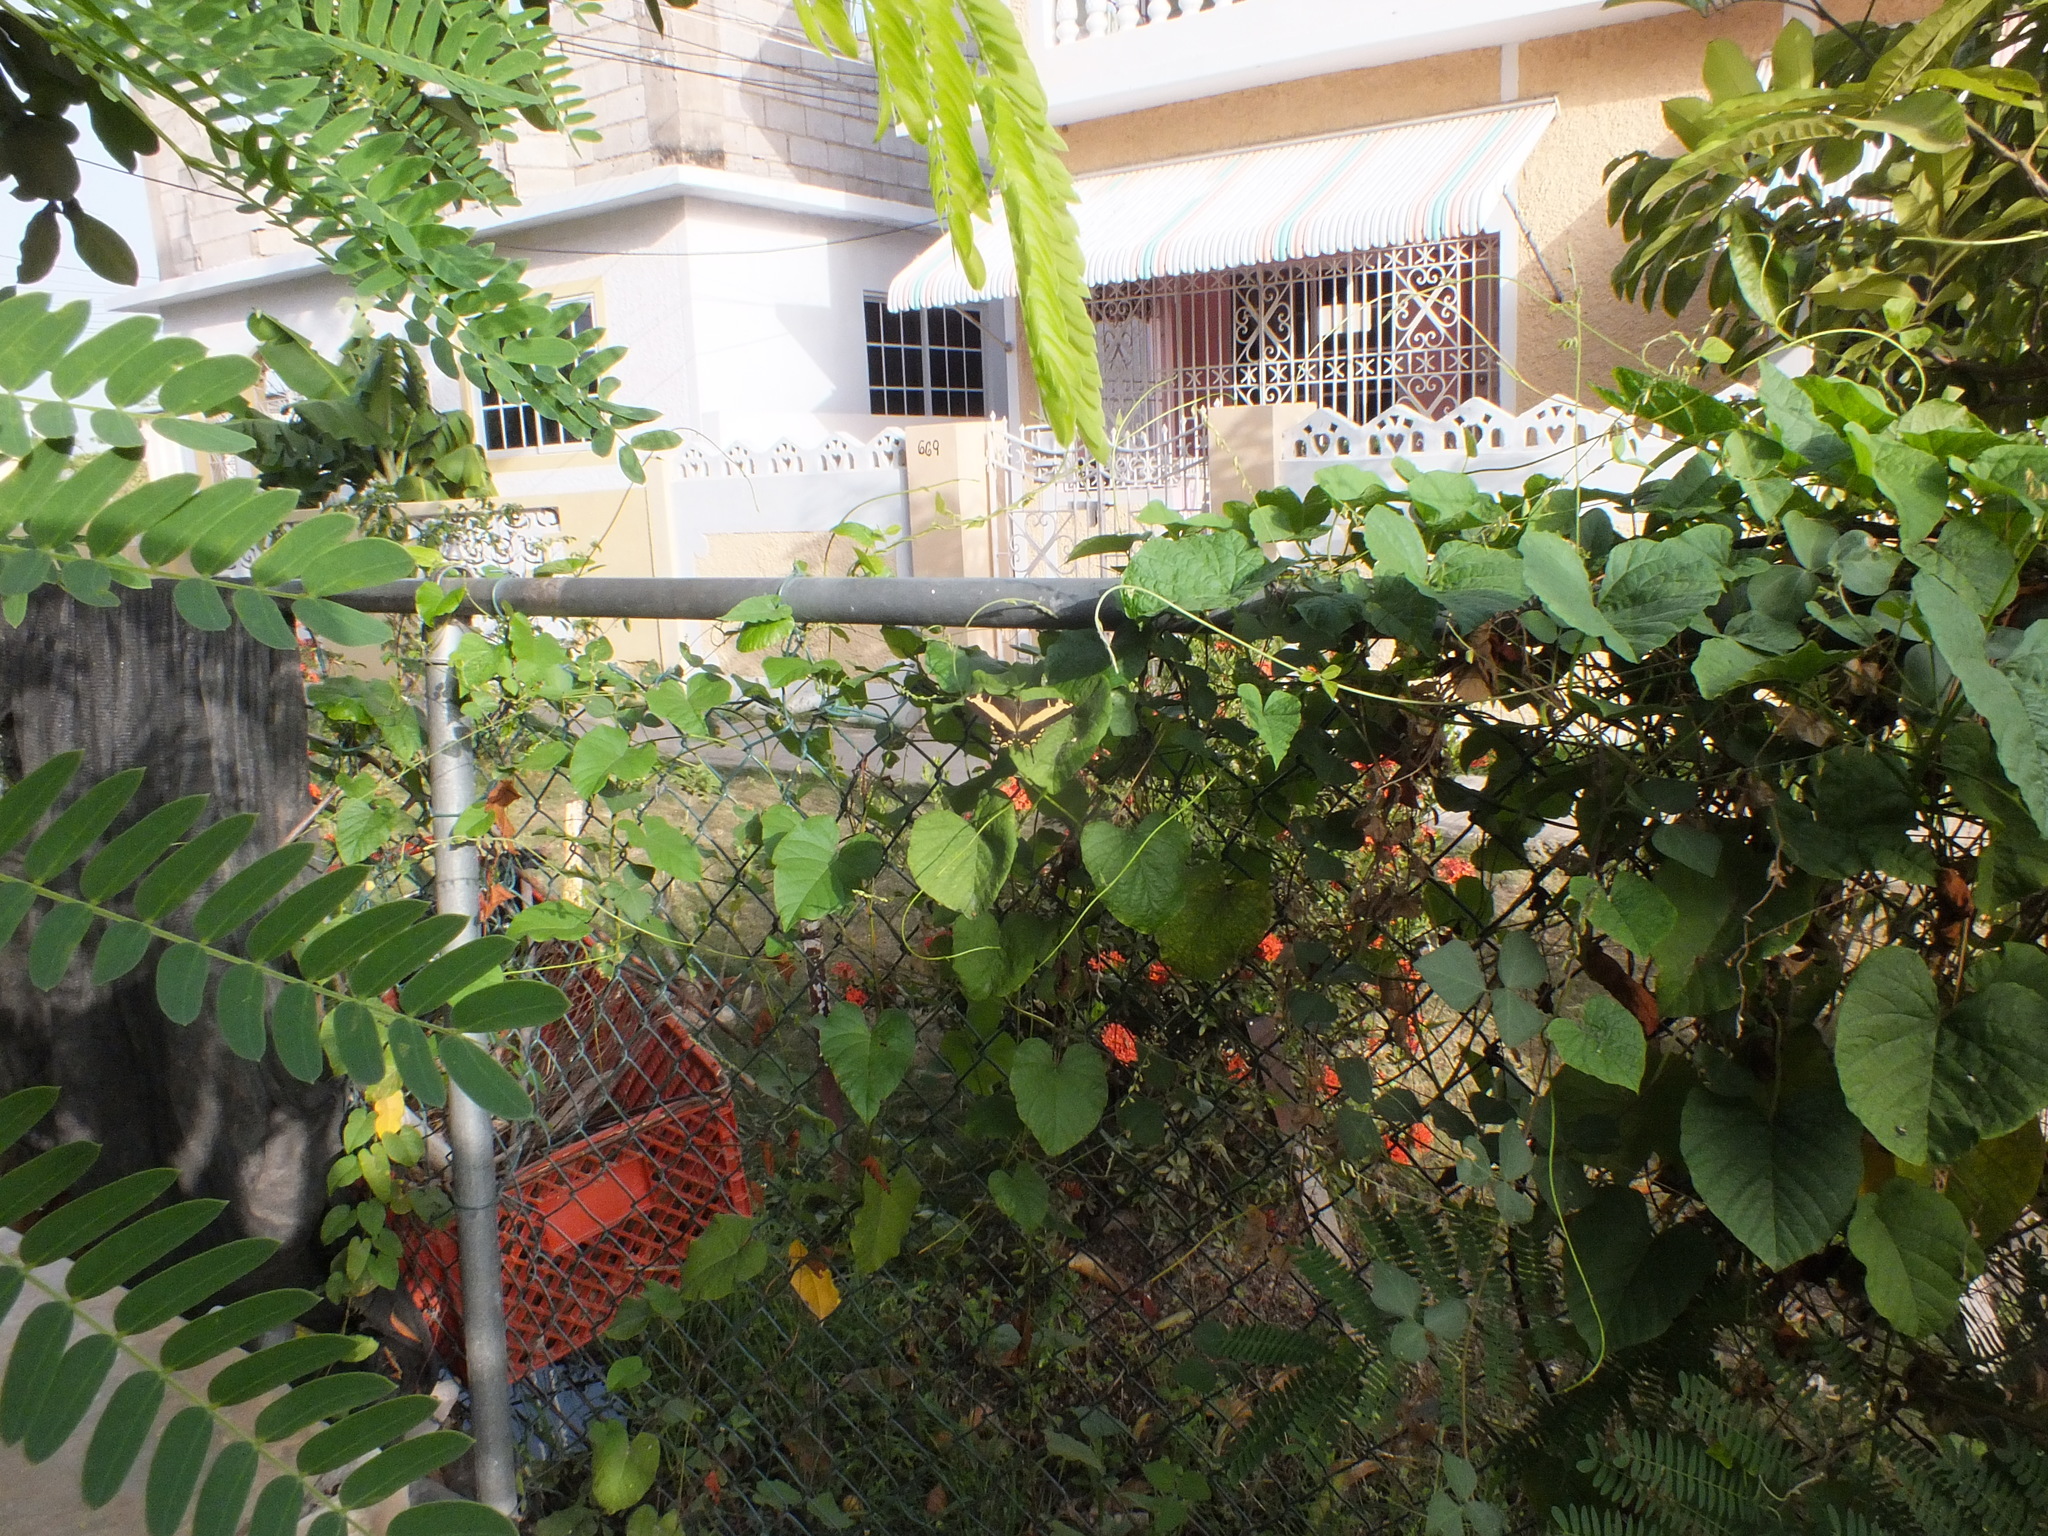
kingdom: Animalia
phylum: Arthropoda
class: Insecta
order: Lepidoptera
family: Papilionidae
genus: Papilio
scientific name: Papilio andraemon
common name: Bahaman swallowtail
